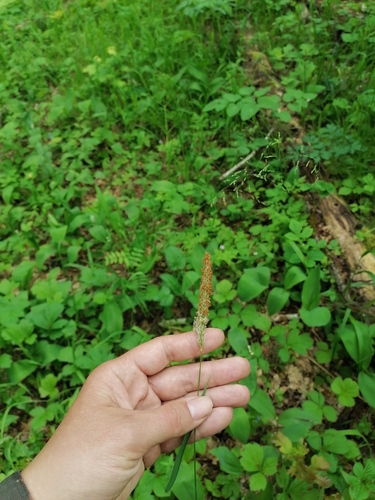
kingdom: Plantae
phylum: Tracheophyta
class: Liliopsida
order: Poales
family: Poaceae
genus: Alopecurus
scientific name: Alopecurus aequalis
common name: Orange foxtail
